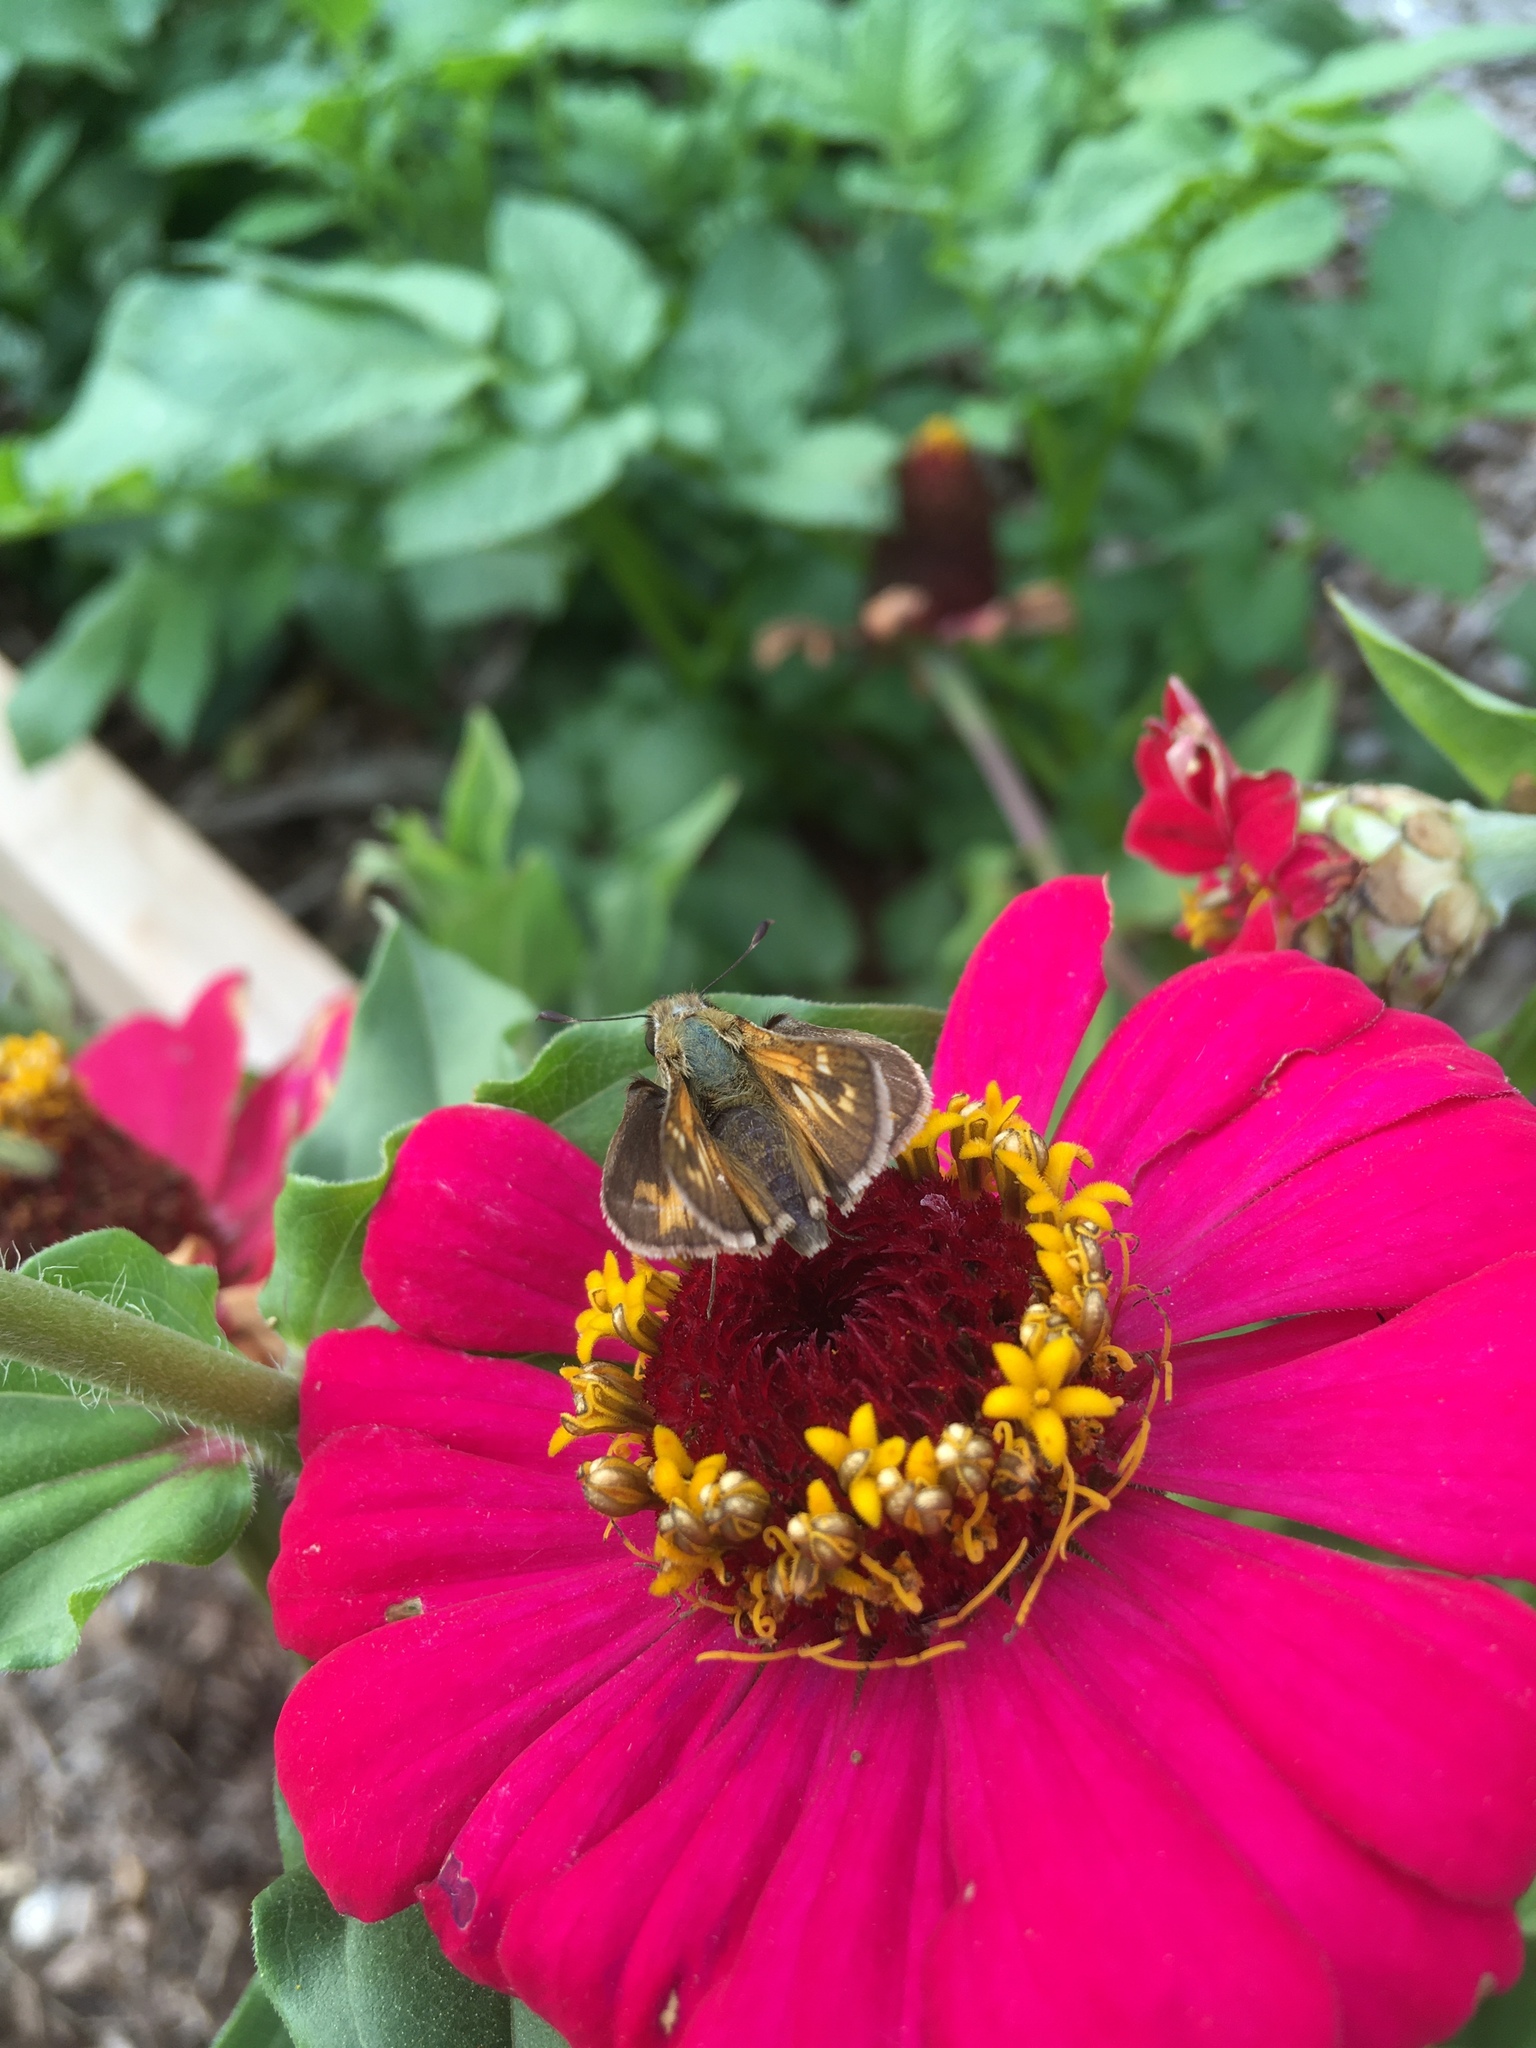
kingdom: Animalia
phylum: Arthropoda
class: Insecta
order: Lepidoptera
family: Hesperiidae
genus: Atalopedes
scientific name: Atalopedes
